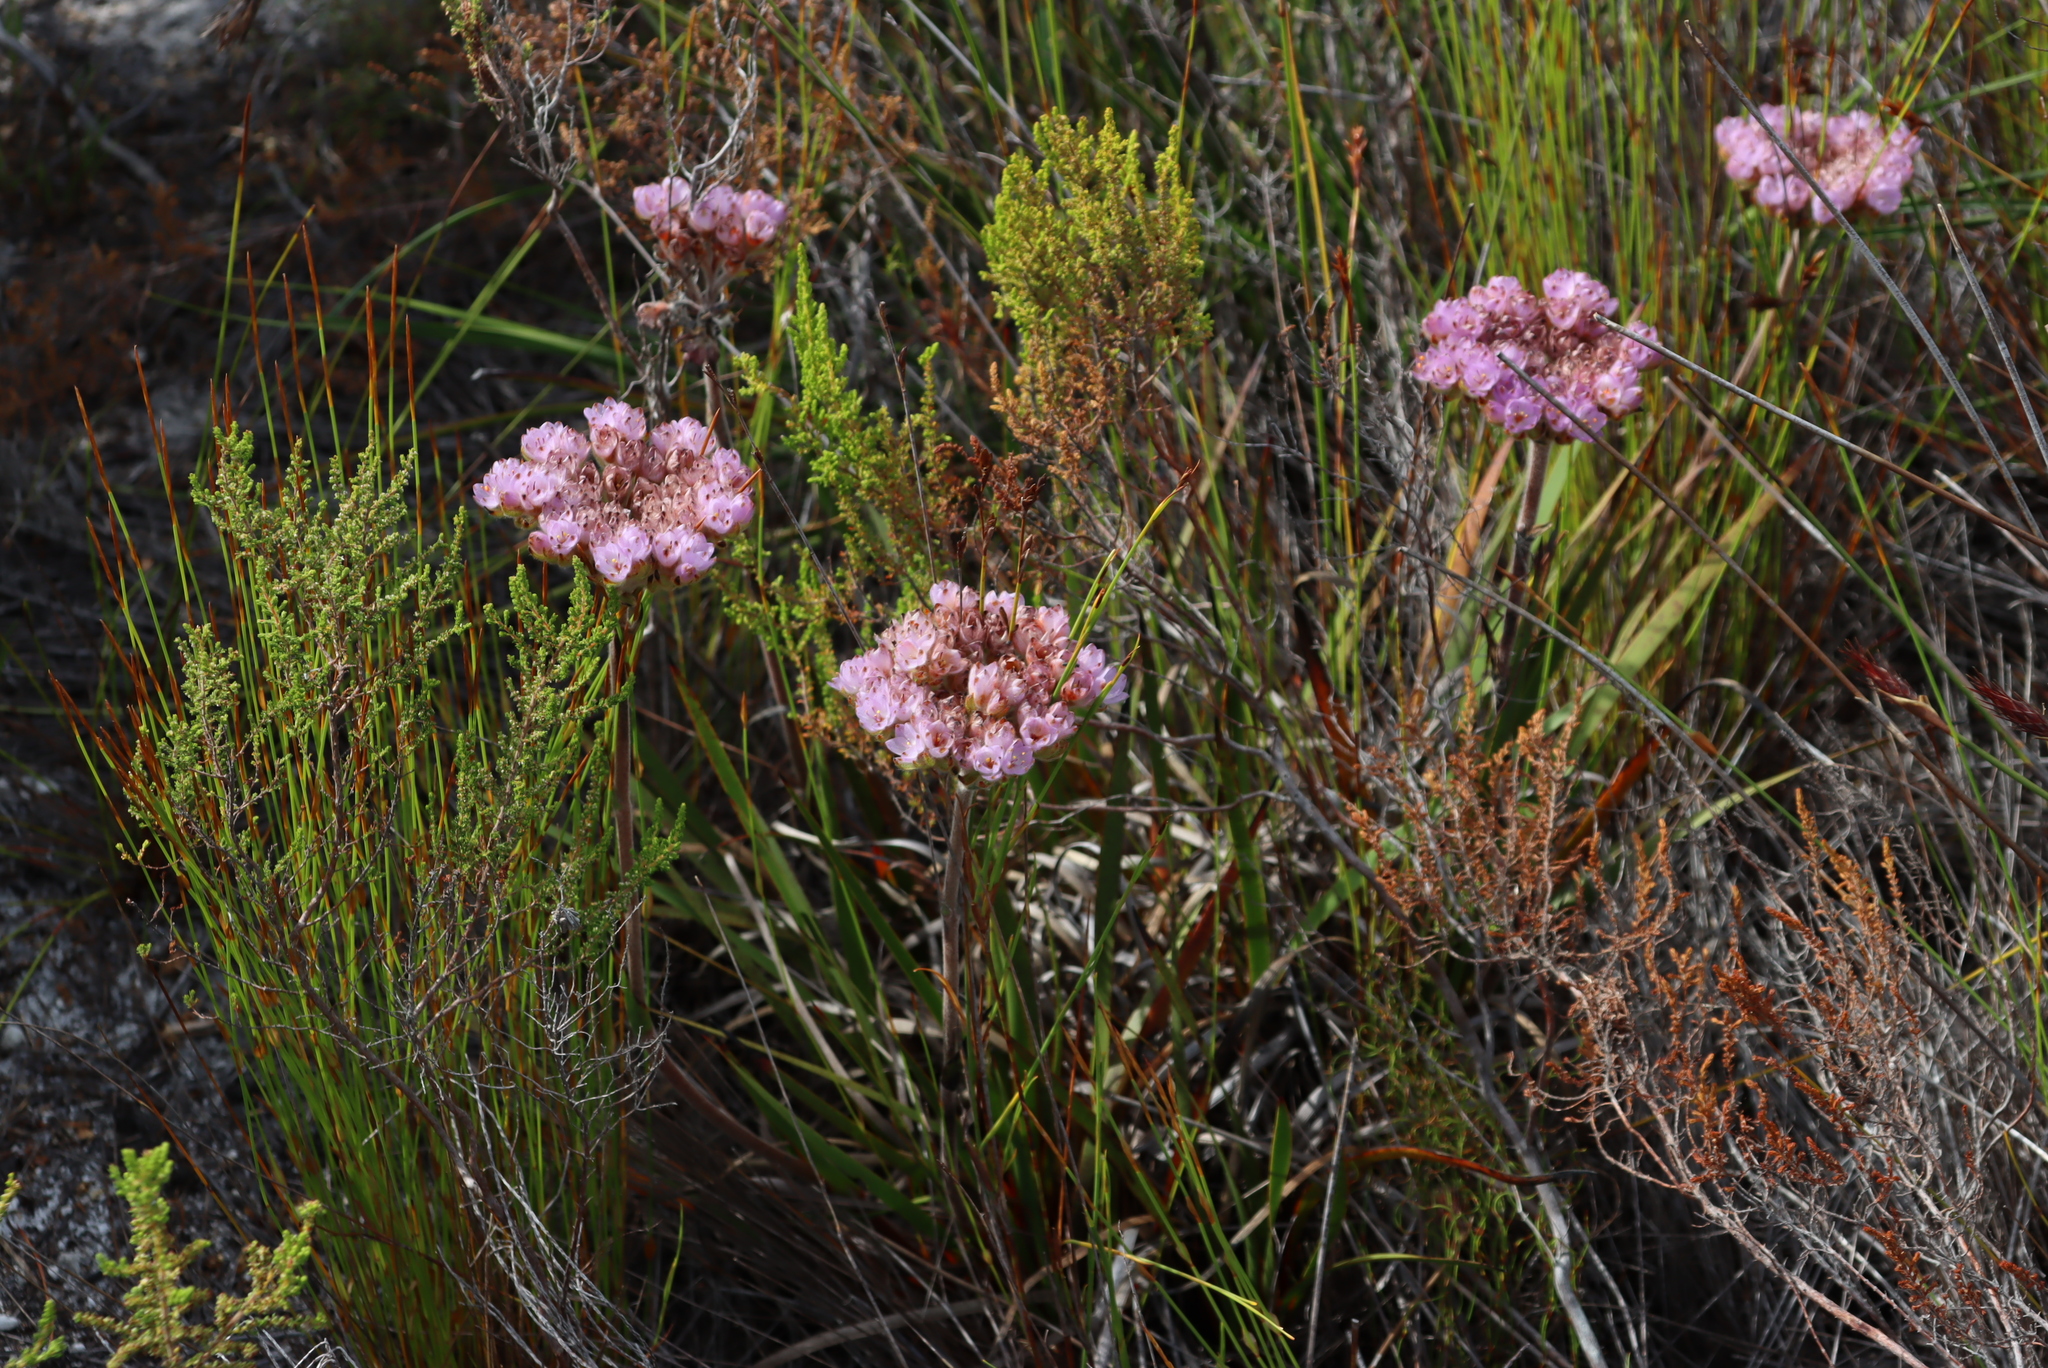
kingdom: Plantae
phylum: Tracheophyta
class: Liliopsida
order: Commelinales
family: Haemodoraceae
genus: Dilatris
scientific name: Dilatris pillansii
